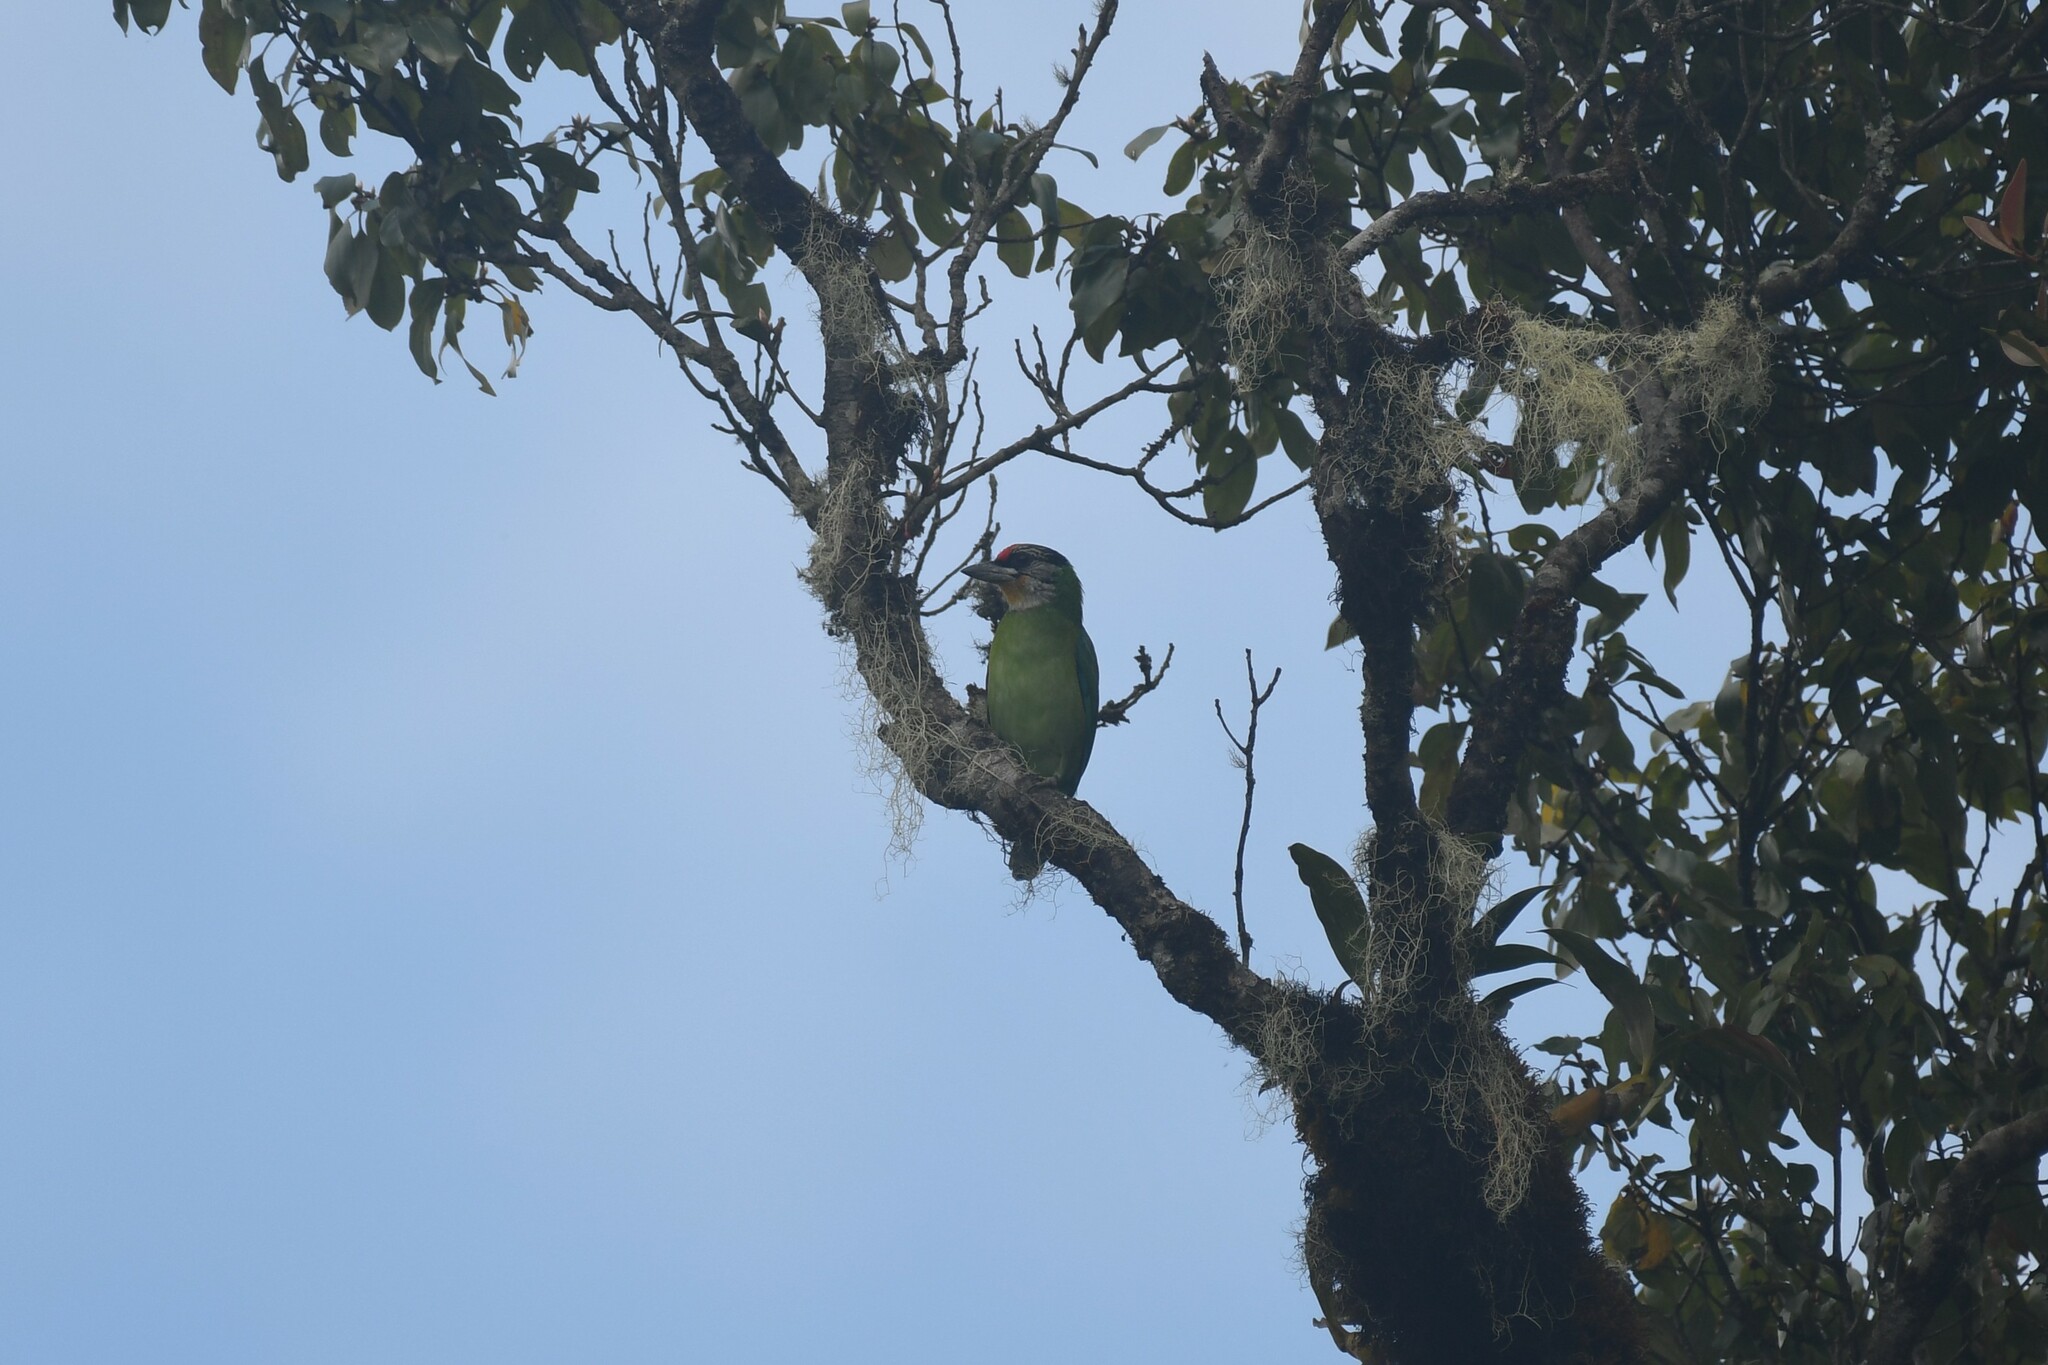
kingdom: Animalia
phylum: Chordata
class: Aves
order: Piciformes
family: Megalaimidae
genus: Psilopogon
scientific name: Psilopogon franklinii
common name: Golden-throated barbet
